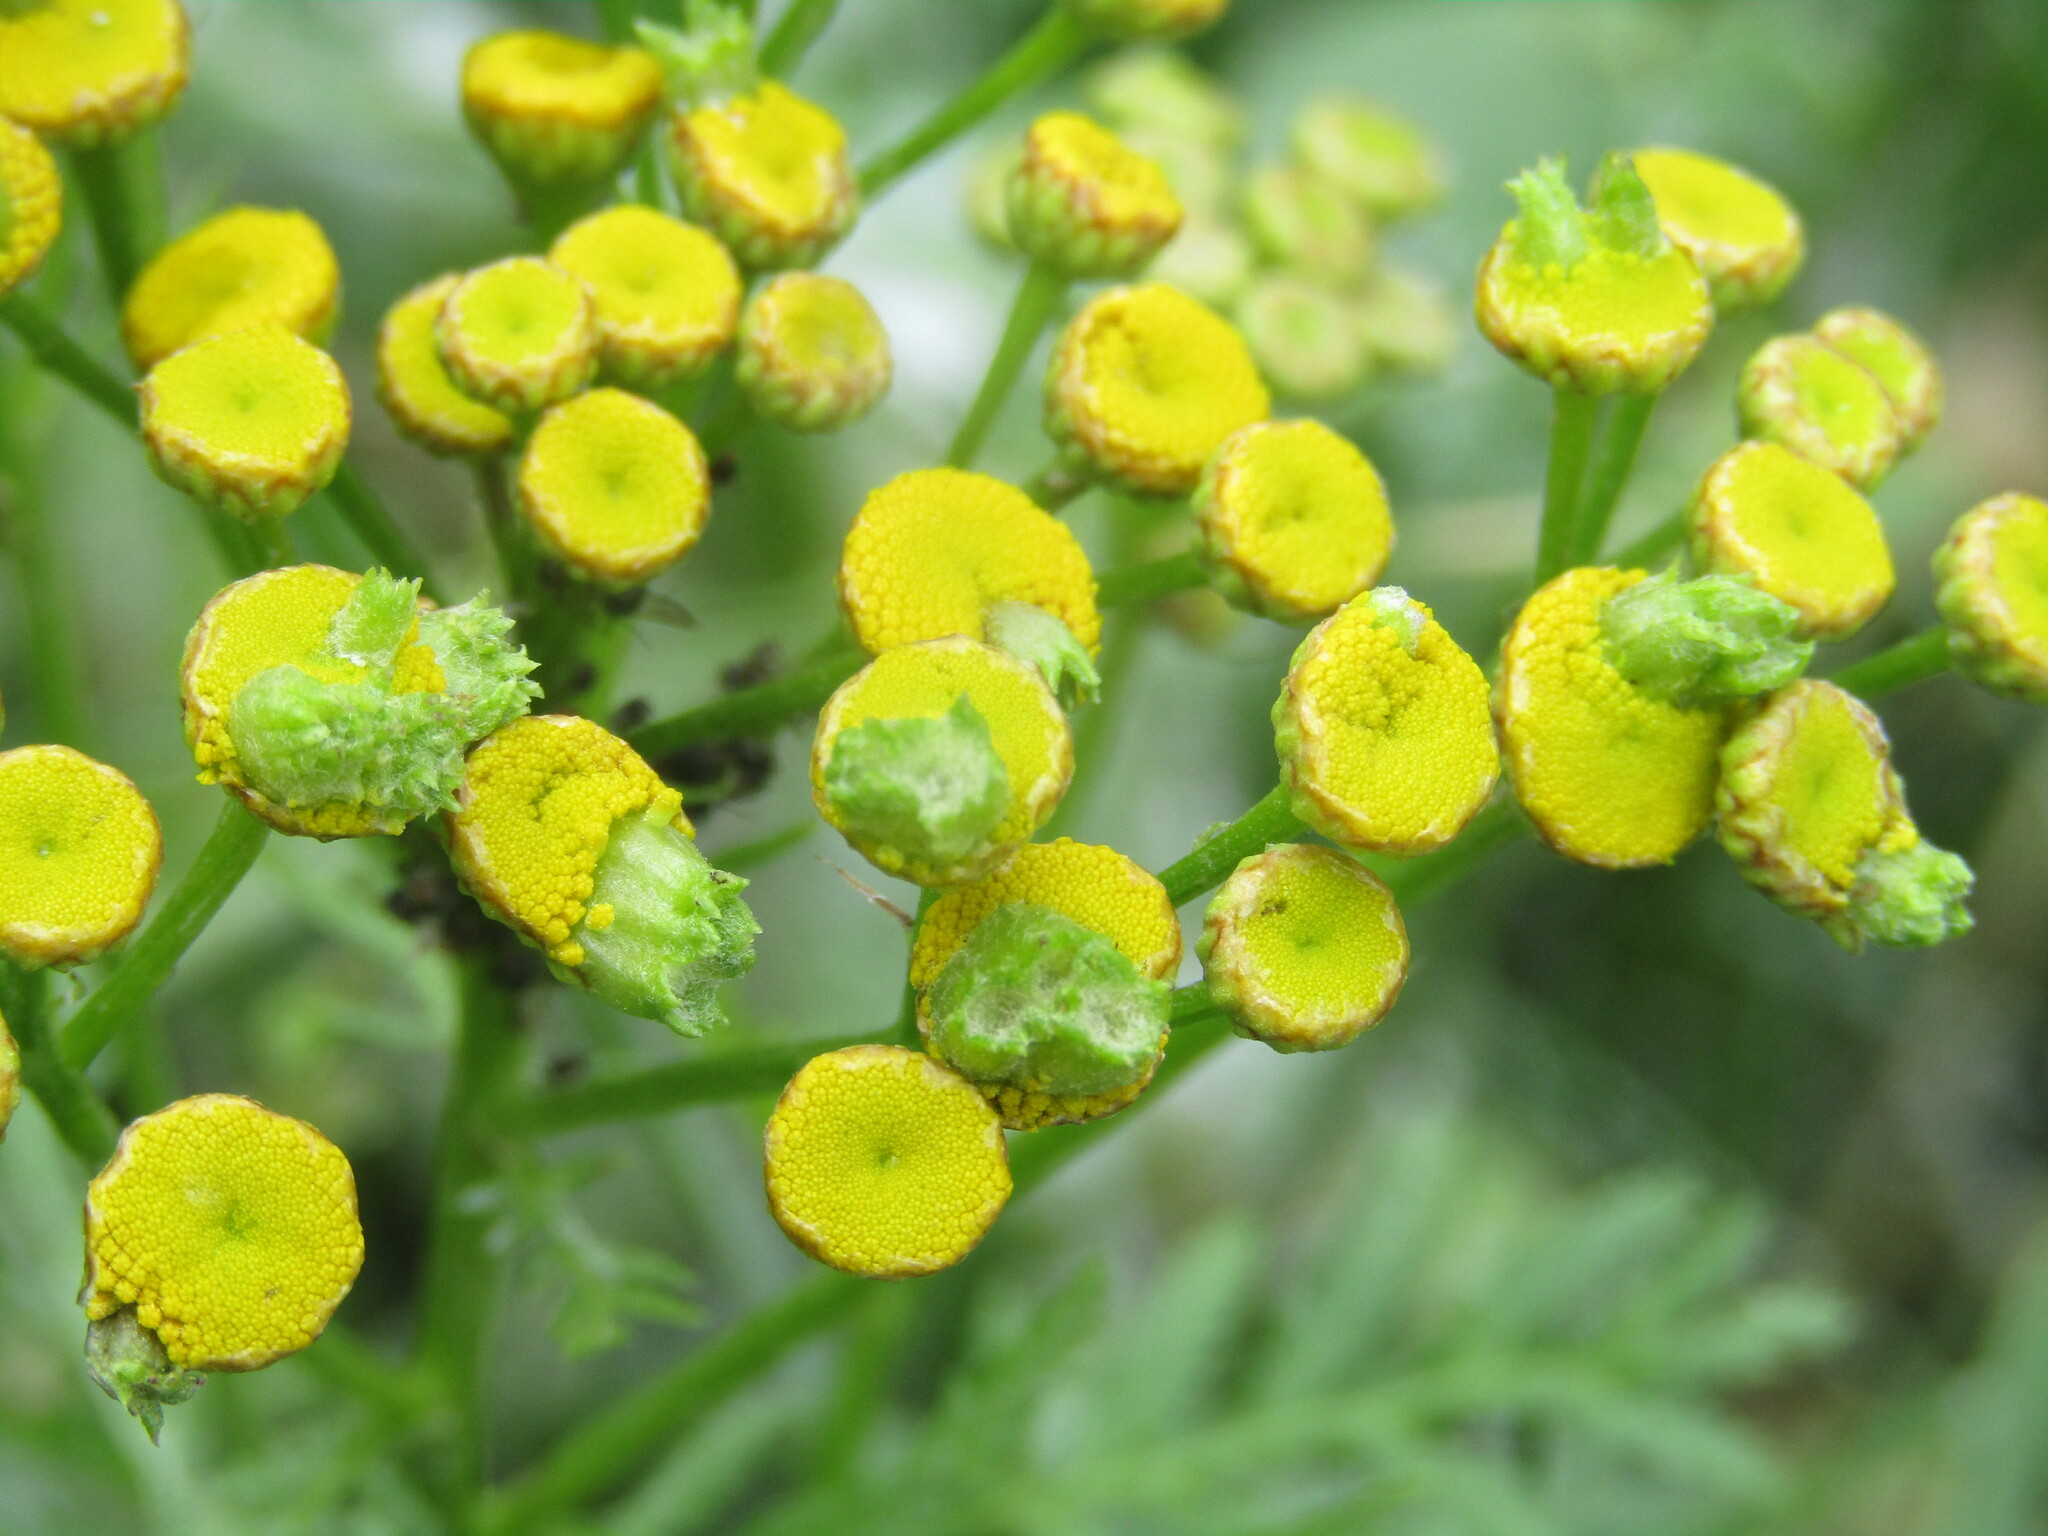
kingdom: Plantae
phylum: Tracheophyta
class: Magnoliopsida
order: Asterales
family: Asteraceae
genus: Tanacetum
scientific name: Tanacetum vulgare
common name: Common tansy
